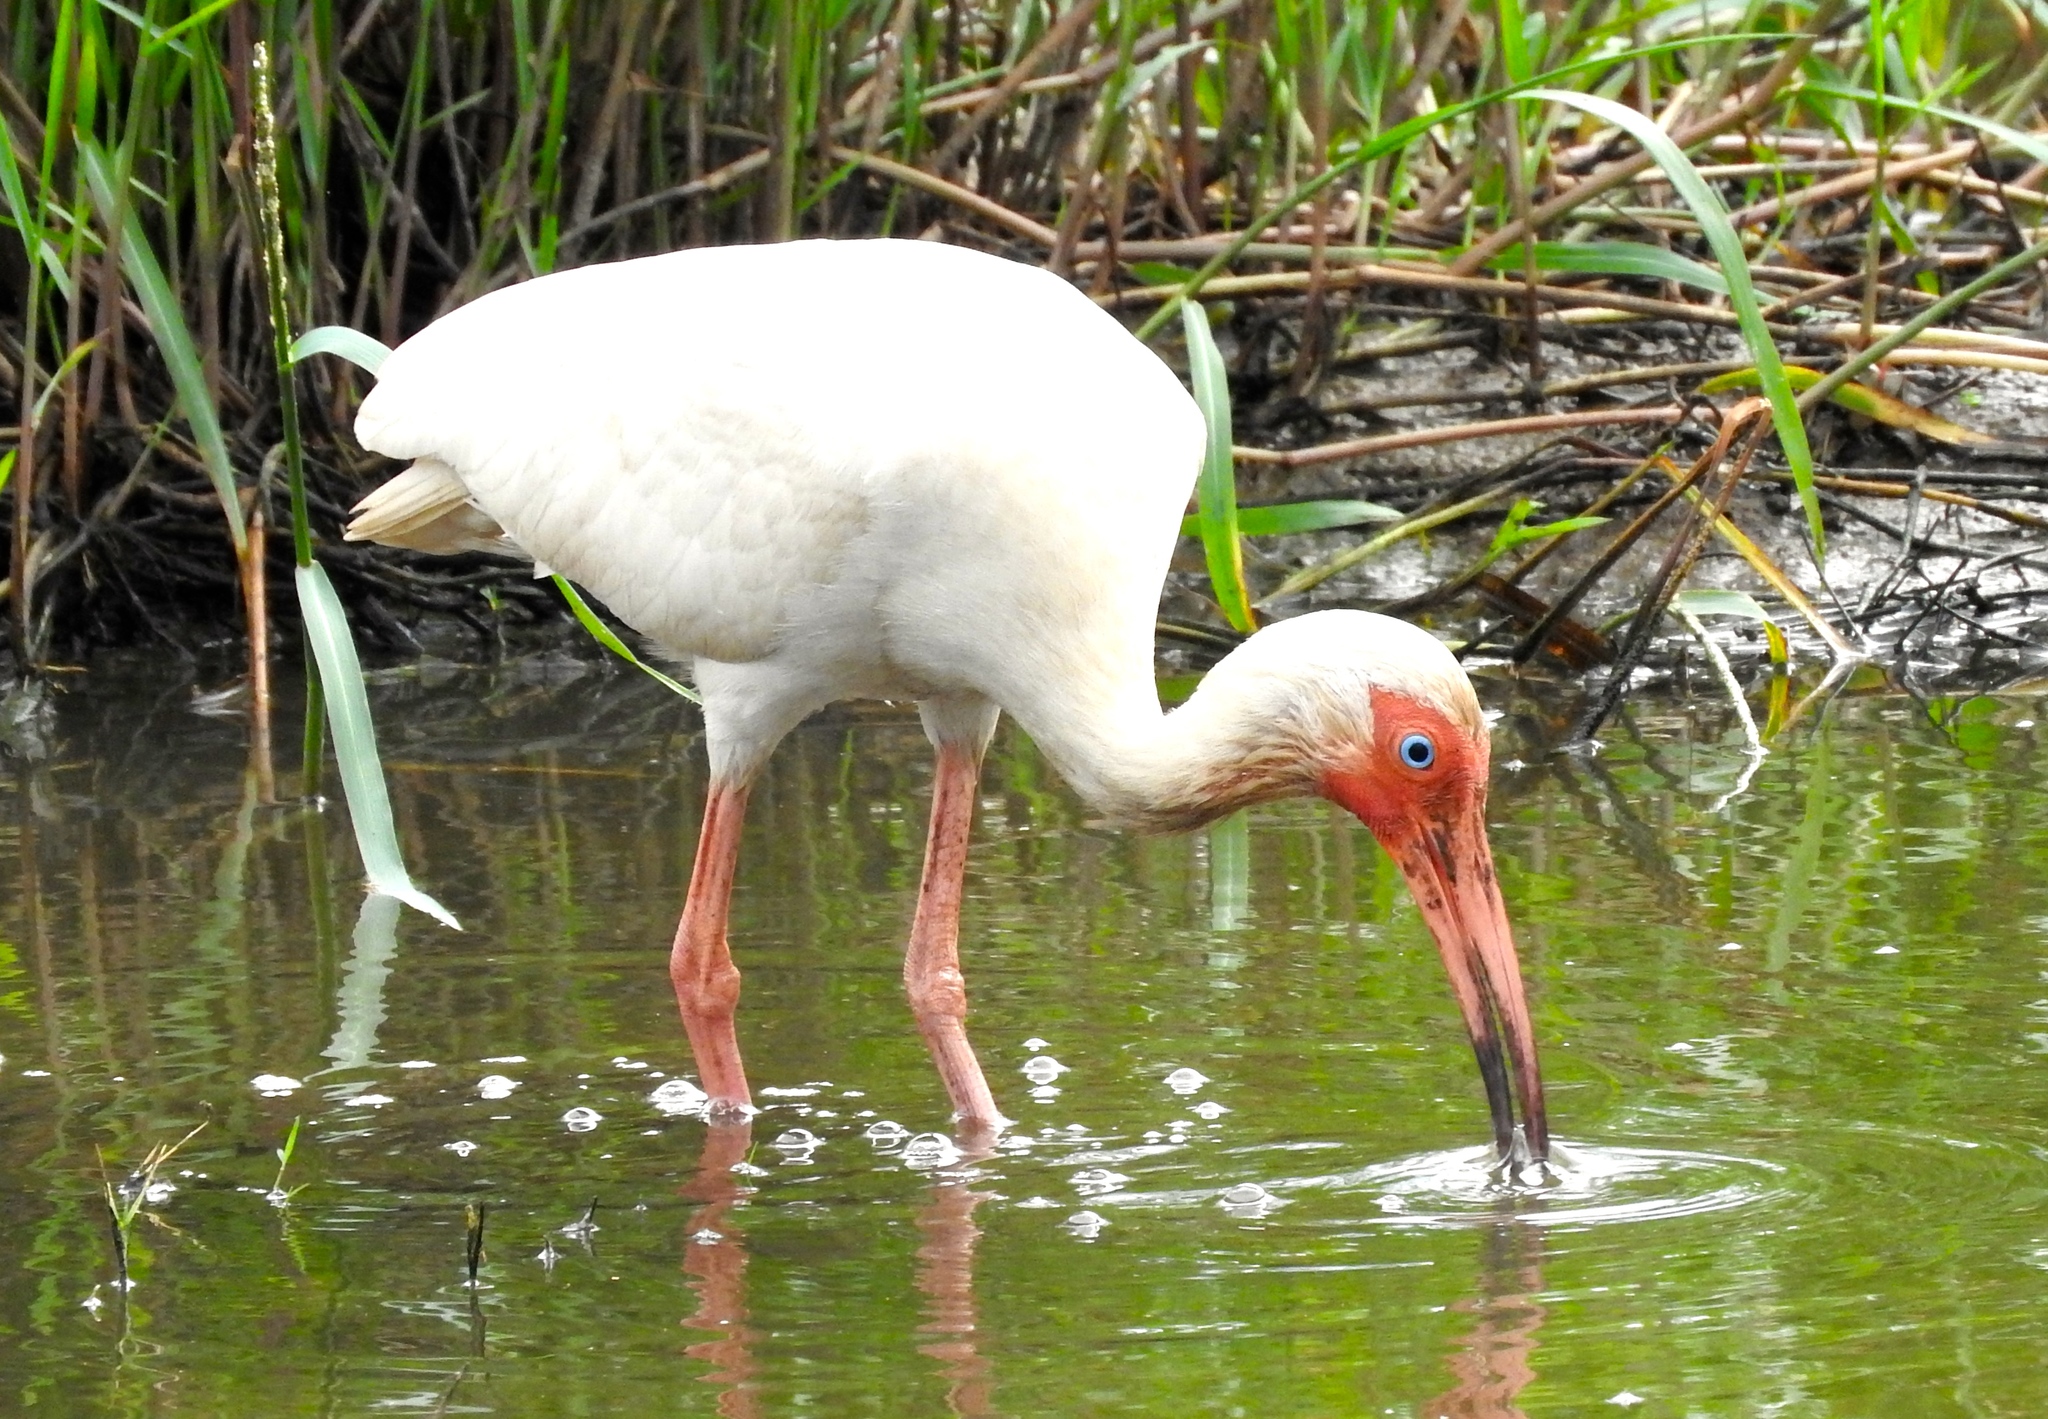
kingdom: Animalia
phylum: Chordata
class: Aves
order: Pelecaniformes
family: Threskiornithidae
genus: Eudocimus
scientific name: Eudocimus albus
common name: White ibis
